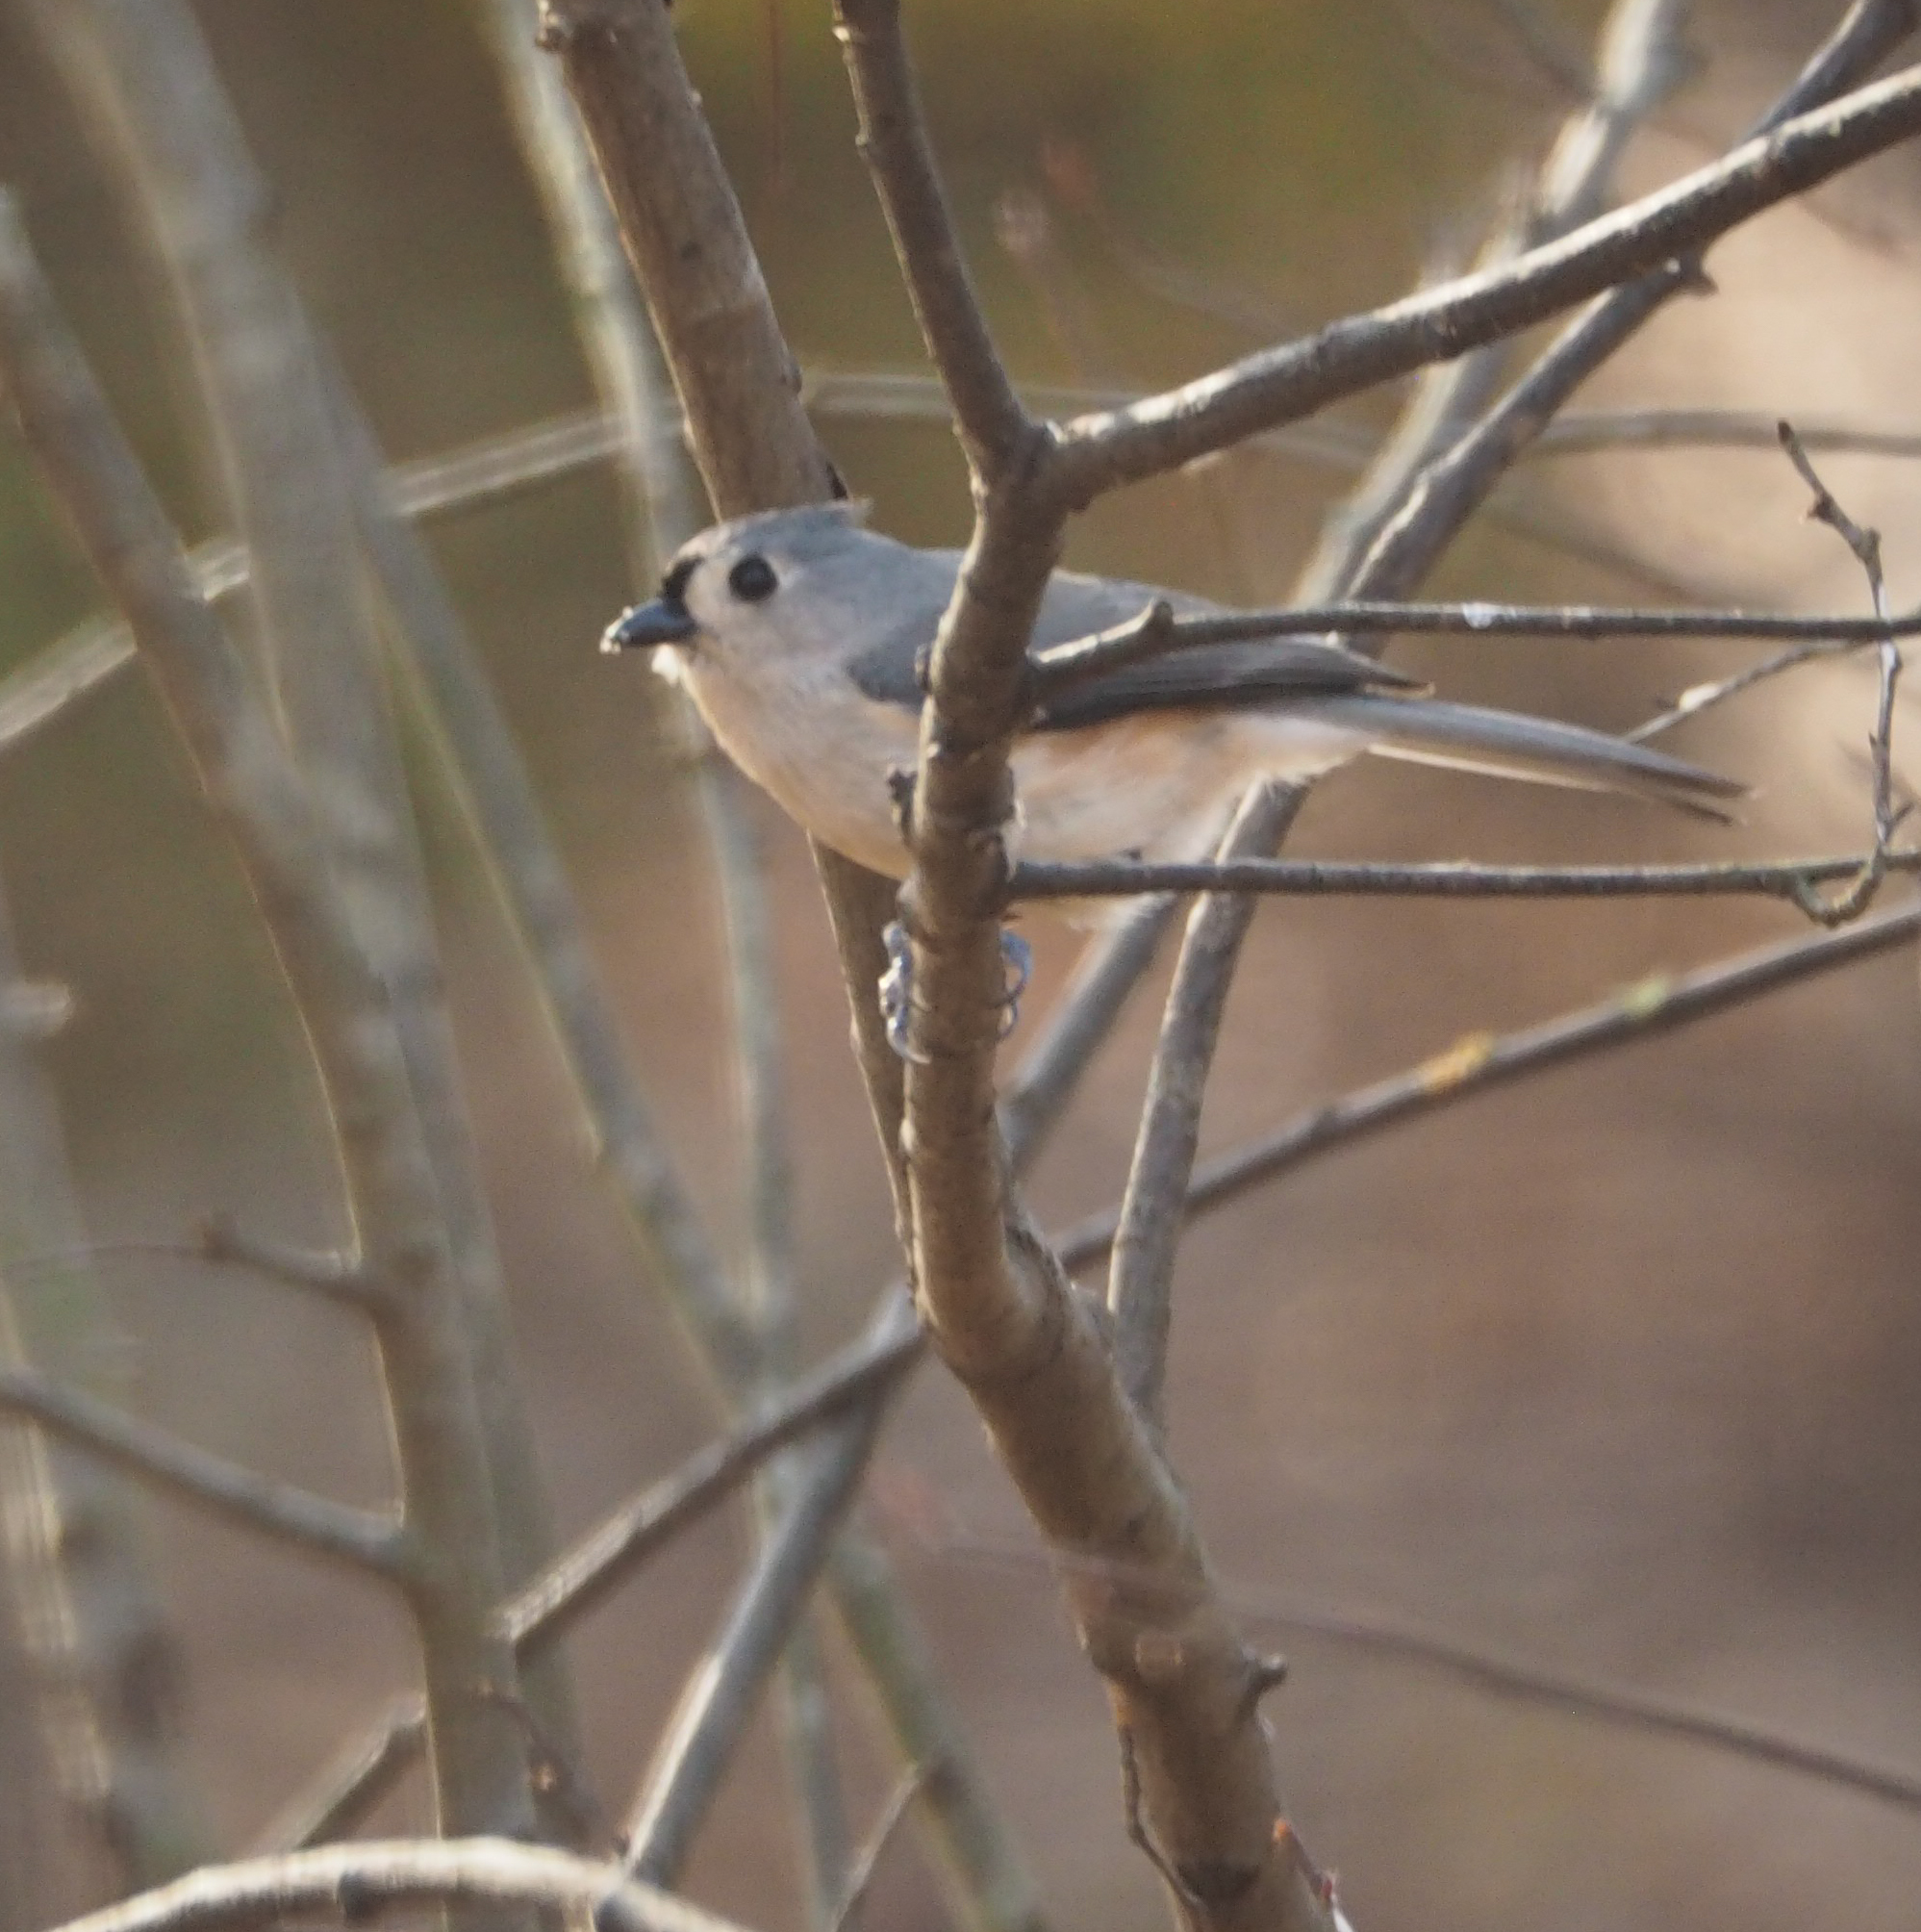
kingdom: Animalia
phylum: Chordata
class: Aves
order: Passeriformes
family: Paridae
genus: Baeolophus
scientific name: Baeolophus bicolor
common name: Tufted titmouse
